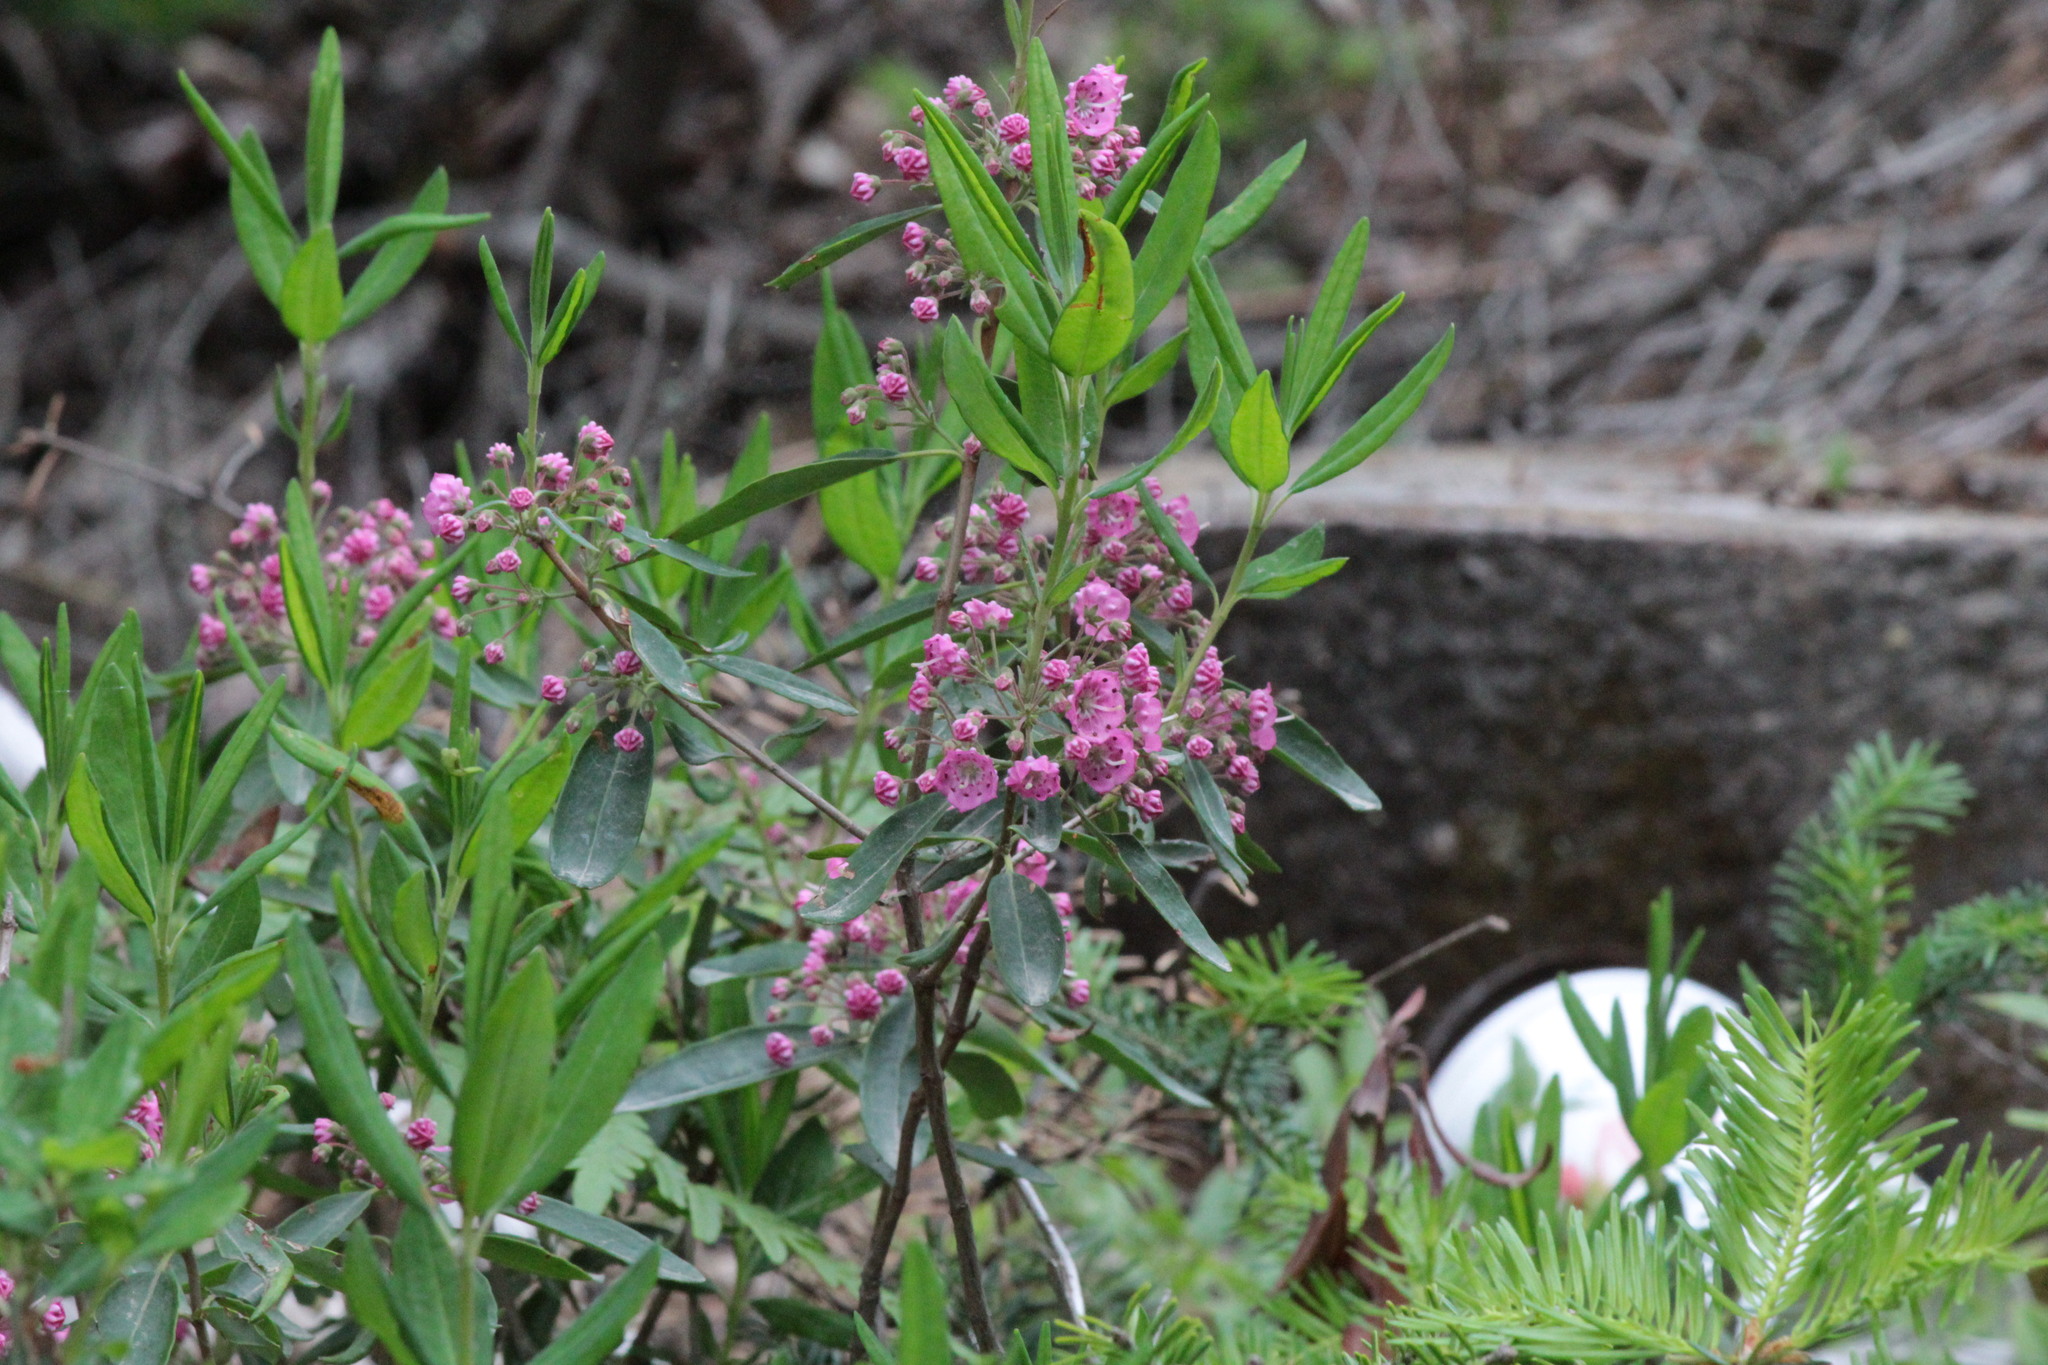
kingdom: Plantae
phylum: Tracheophyta
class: Magnoliopsida
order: Ericales
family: Ericaceae
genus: Kalmia
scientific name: Kalmia angustifolia
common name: Sheep-laurel
